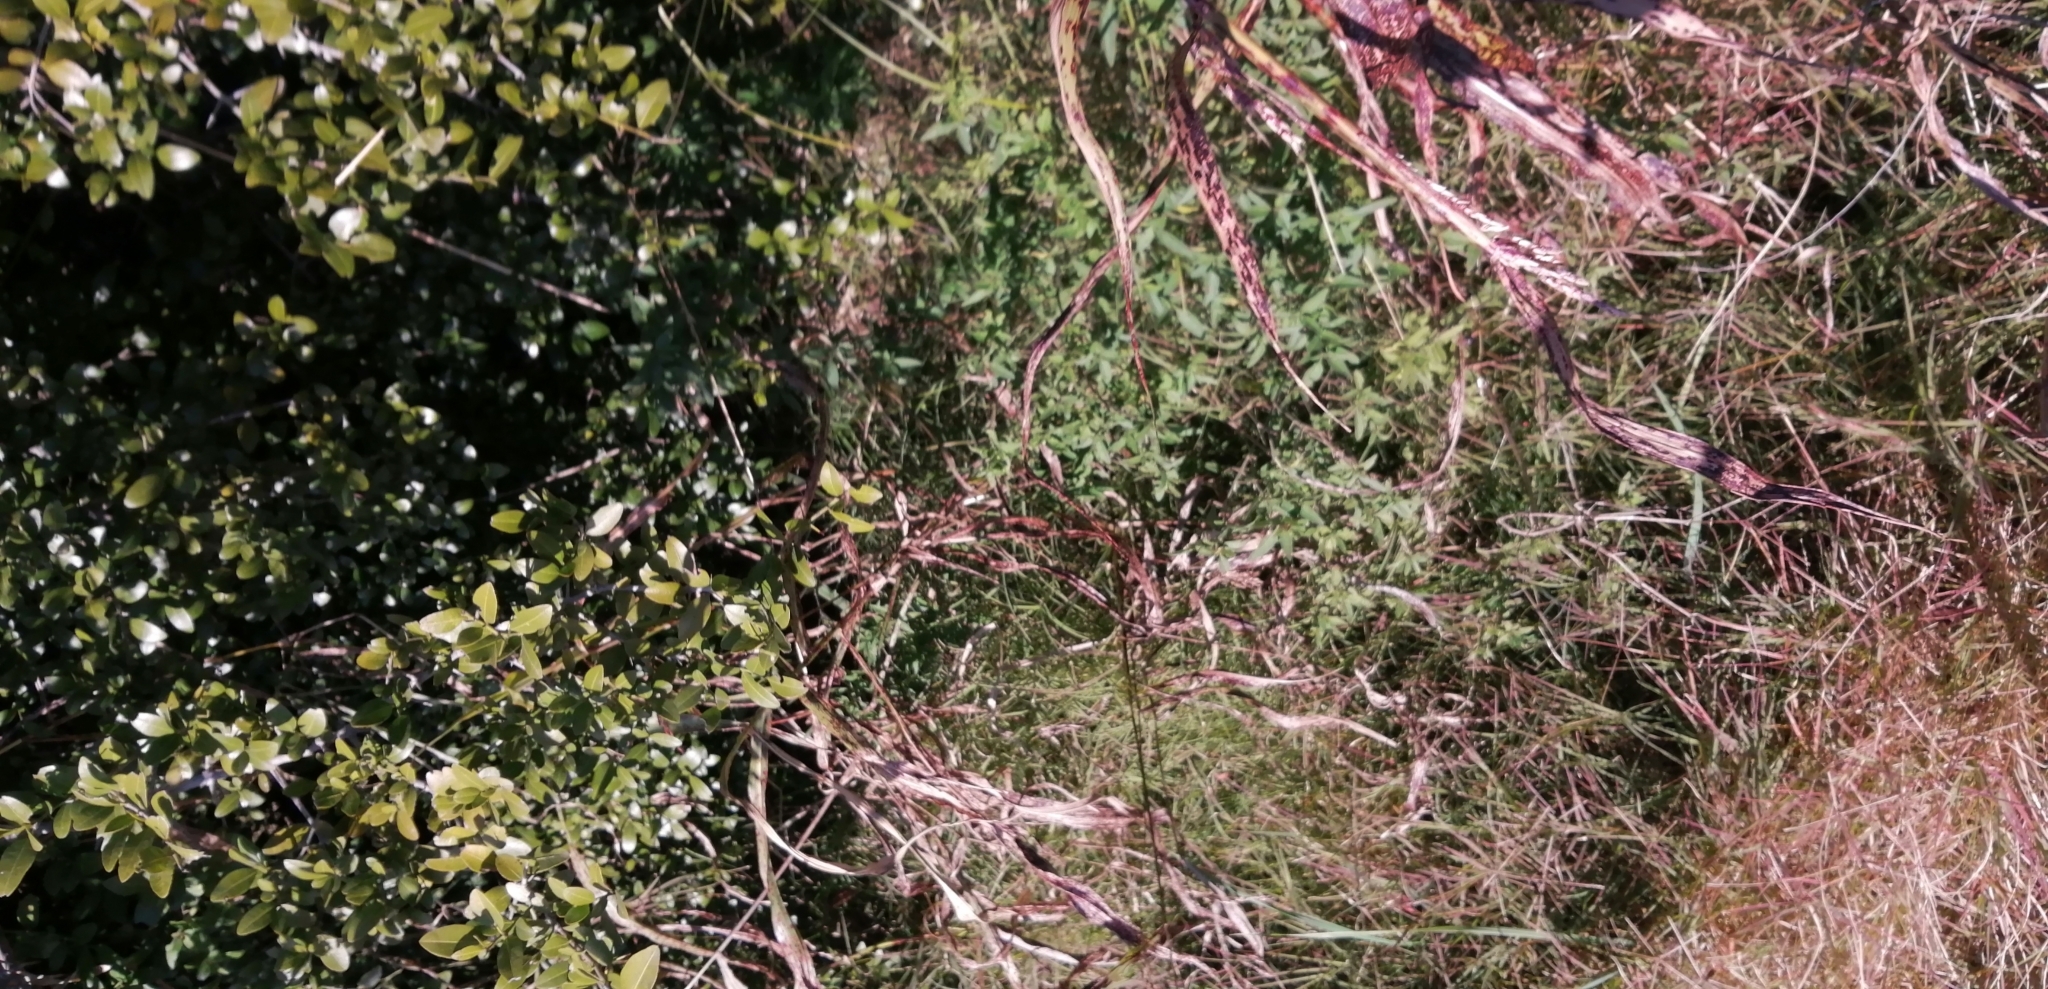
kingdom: Plantae
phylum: Tracheophyta
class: Magnoliopsida
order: Rosales
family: Rhamnaceae
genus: Scutia
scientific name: Scutia buxifolia
